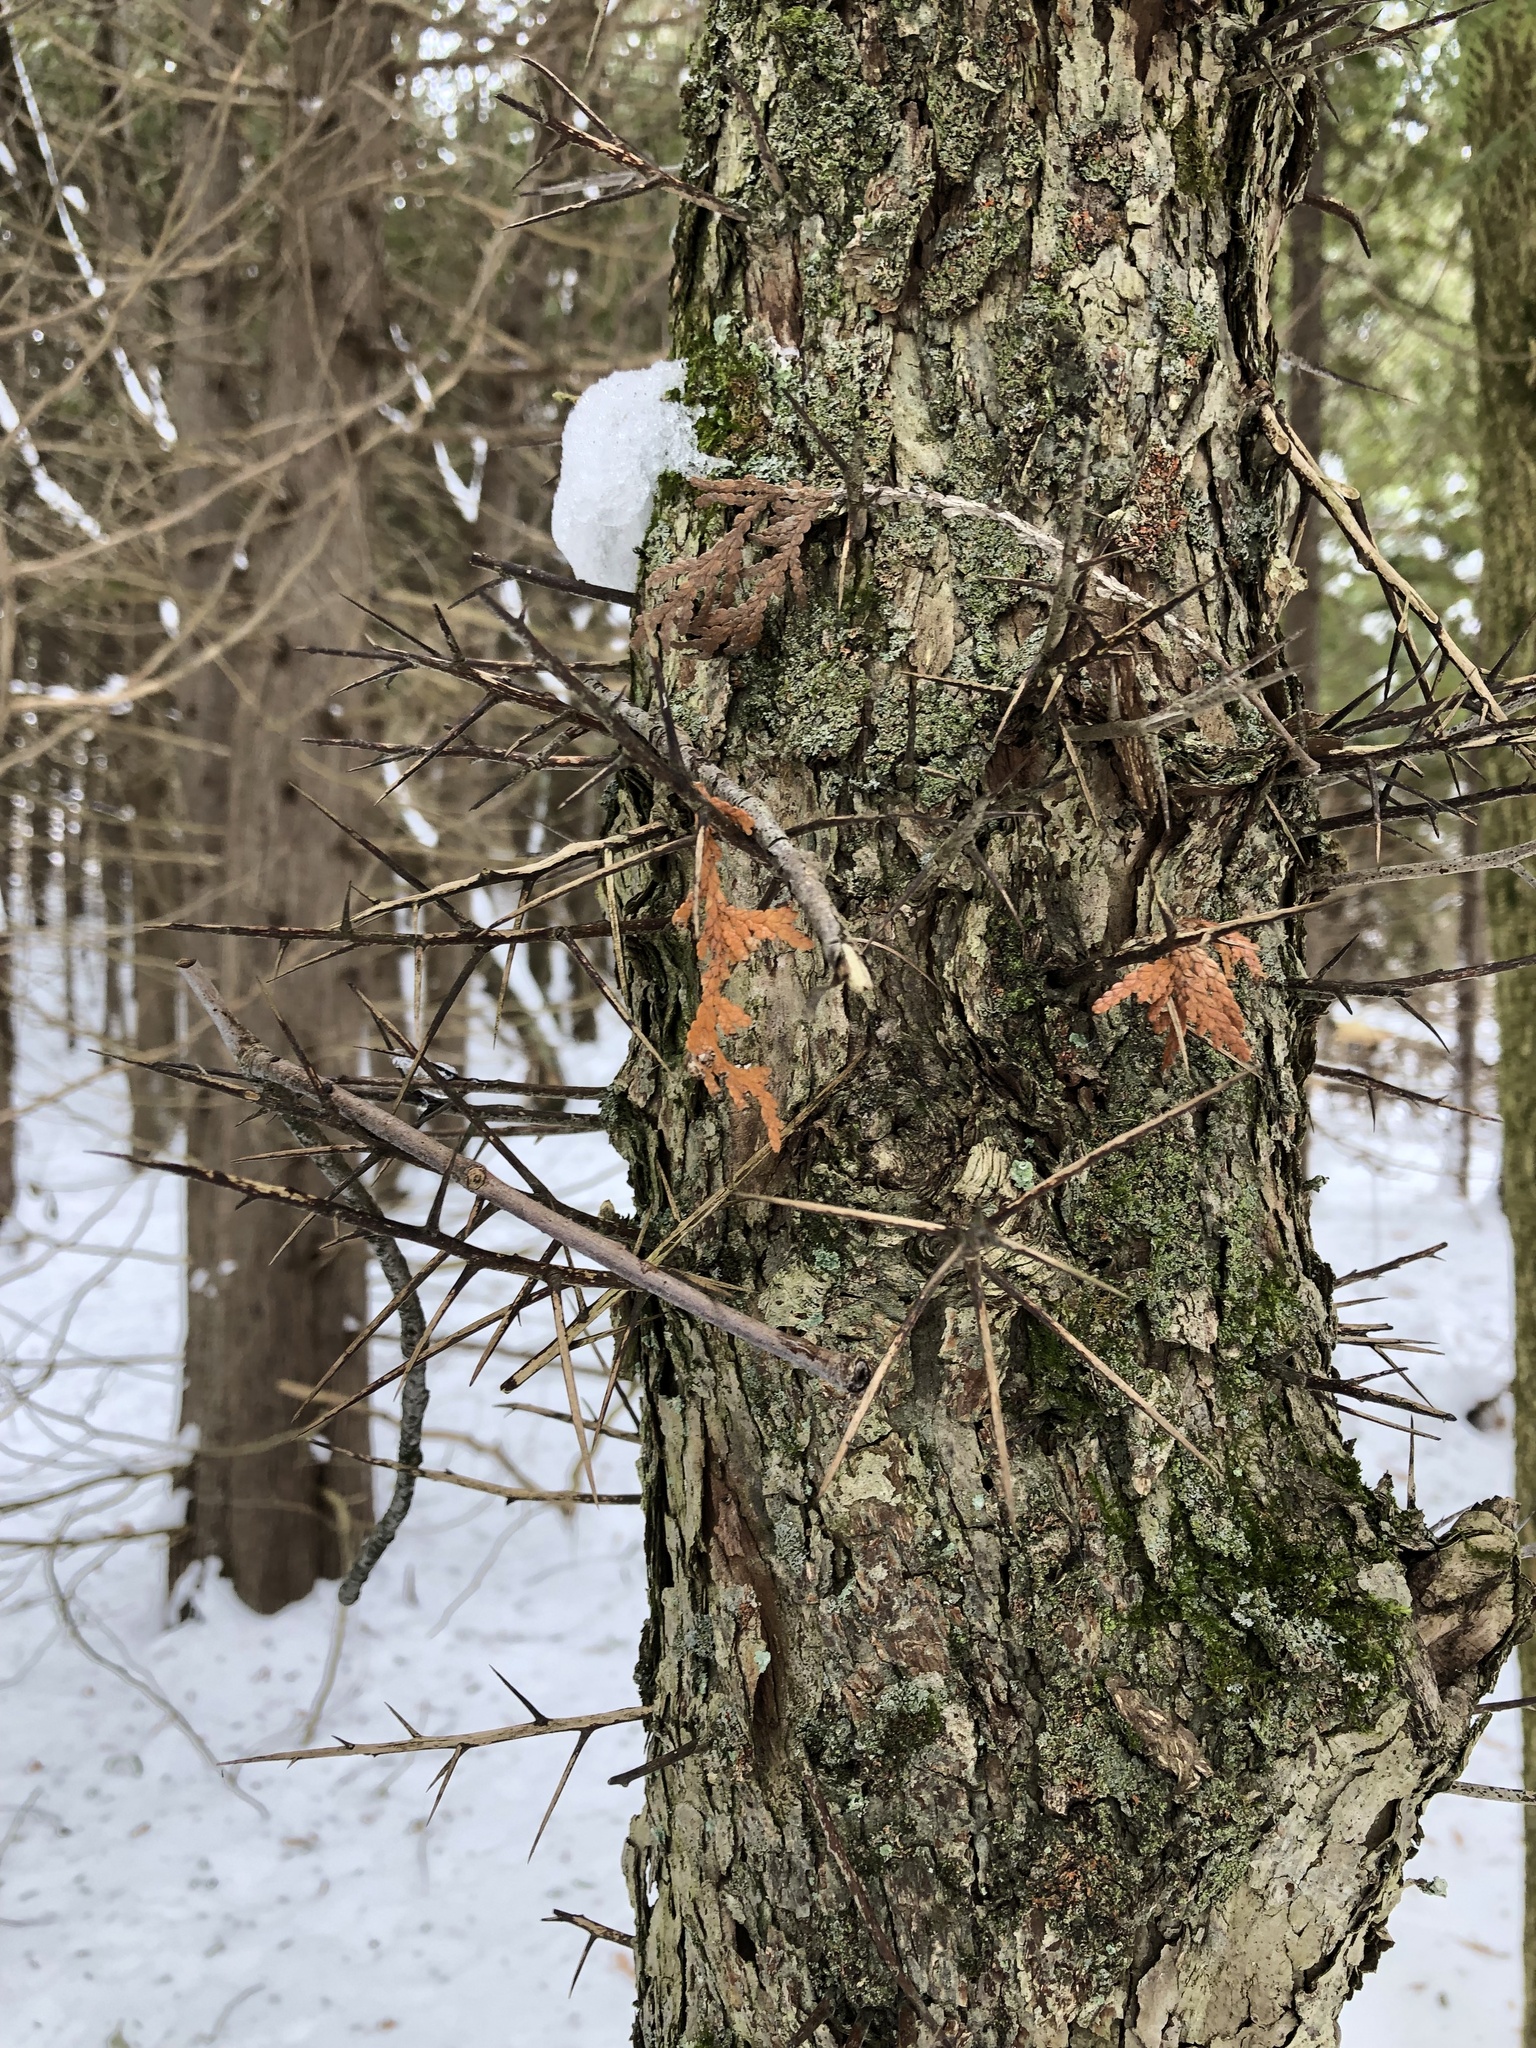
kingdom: Plantae
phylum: Tracheophyta
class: Magnoliopsida
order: Fabales
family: Fabaceae
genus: Gleditsia
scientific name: Gleditsia triacanthos
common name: Common honeylocust
